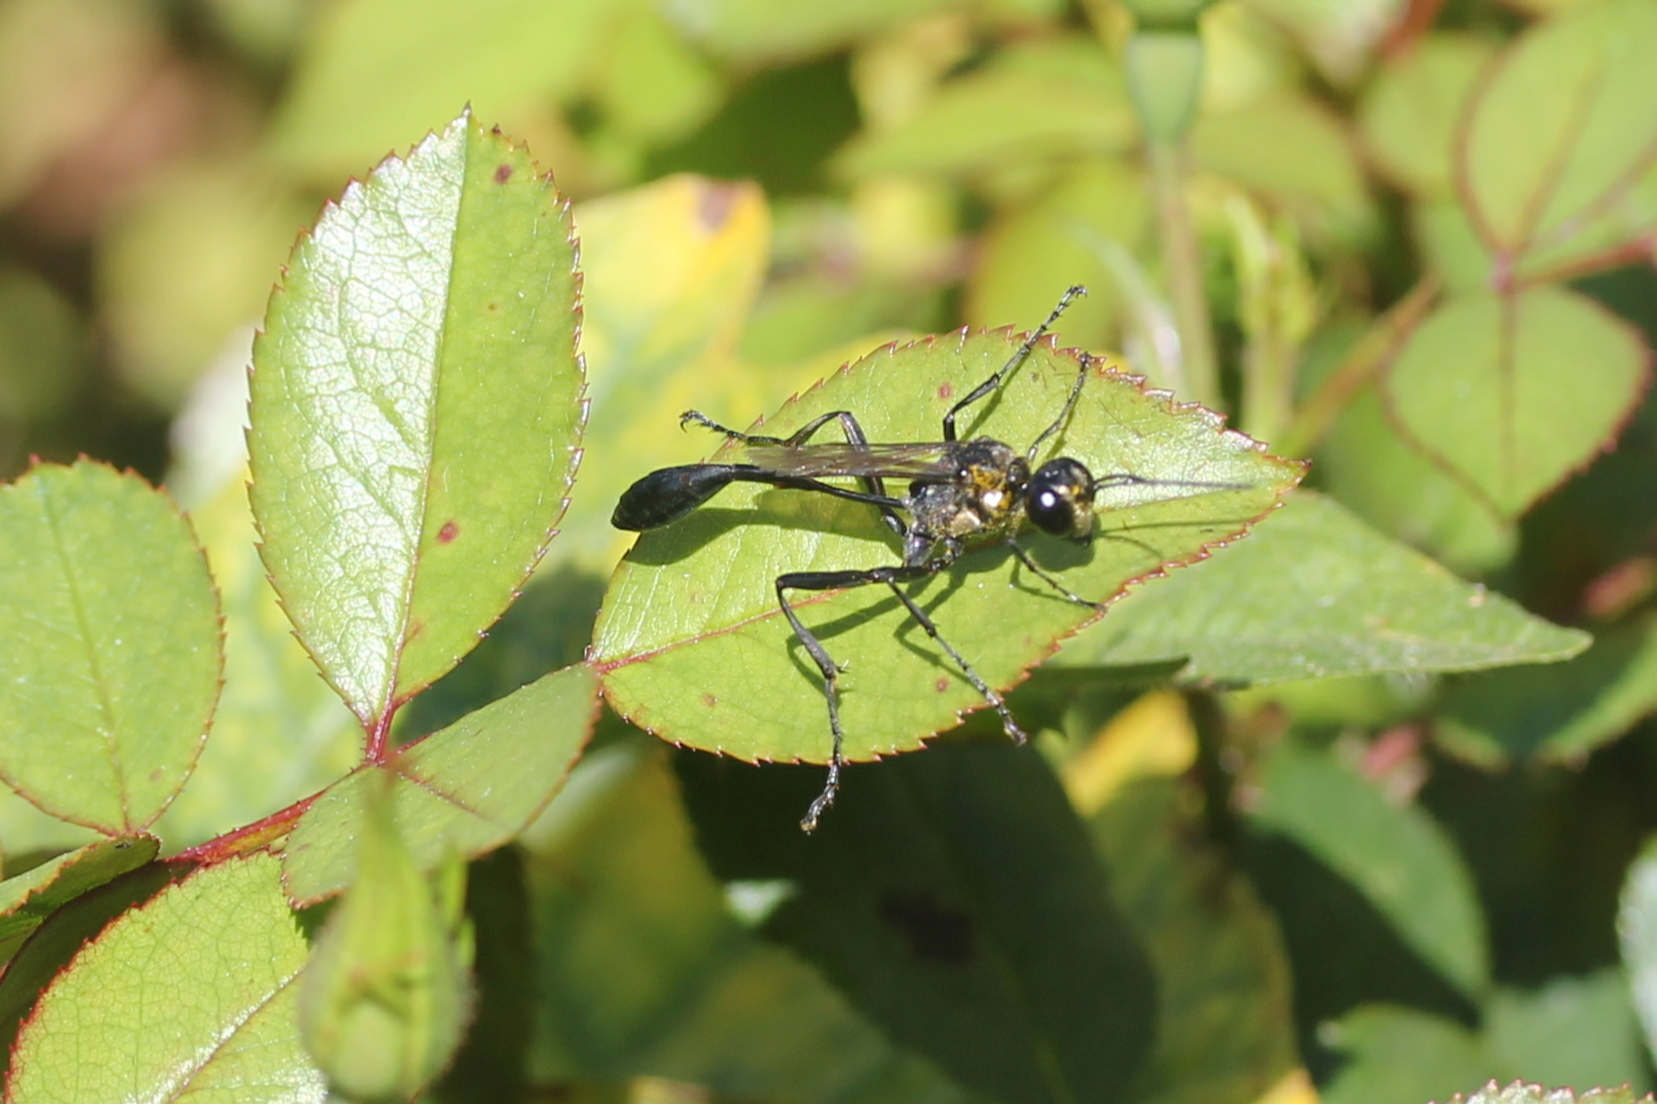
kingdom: Animalia
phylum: Arthropoda
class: Insecta
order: Hymenoptera
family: Sphecidae
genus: Eremnophila
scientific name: Eremnophila aureonotata
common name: Gold-marked thread-waisted wasp
